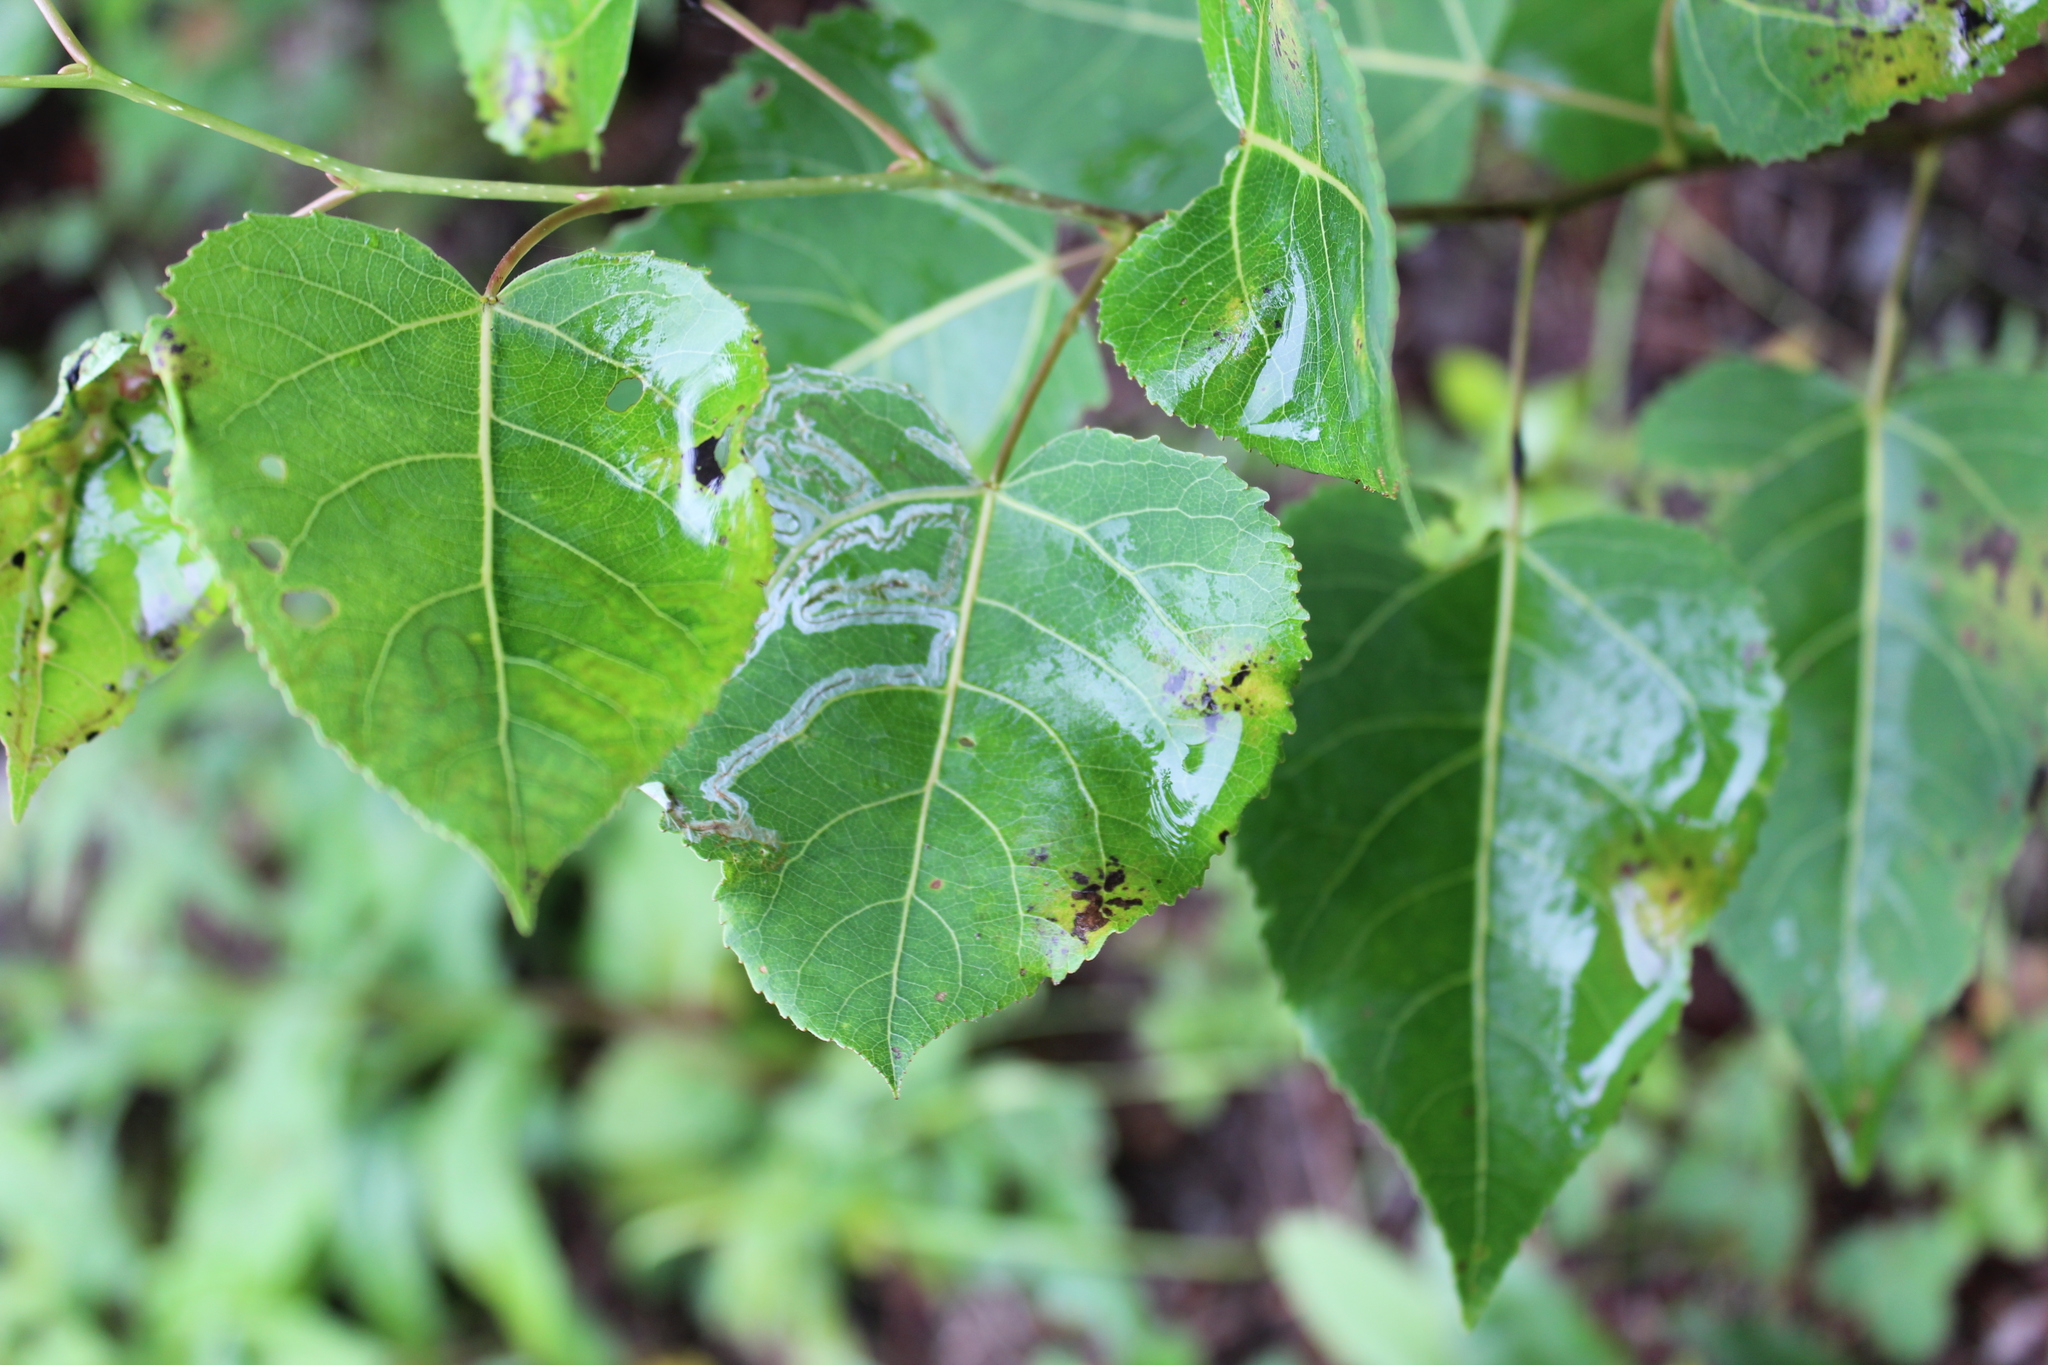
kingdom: Plantae
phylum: Tracheophyta
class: Magnoliopsida
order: Malpighiales
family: Salicaceae
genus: Populus
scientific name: Populus tremuloides
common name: Quaking aspen
